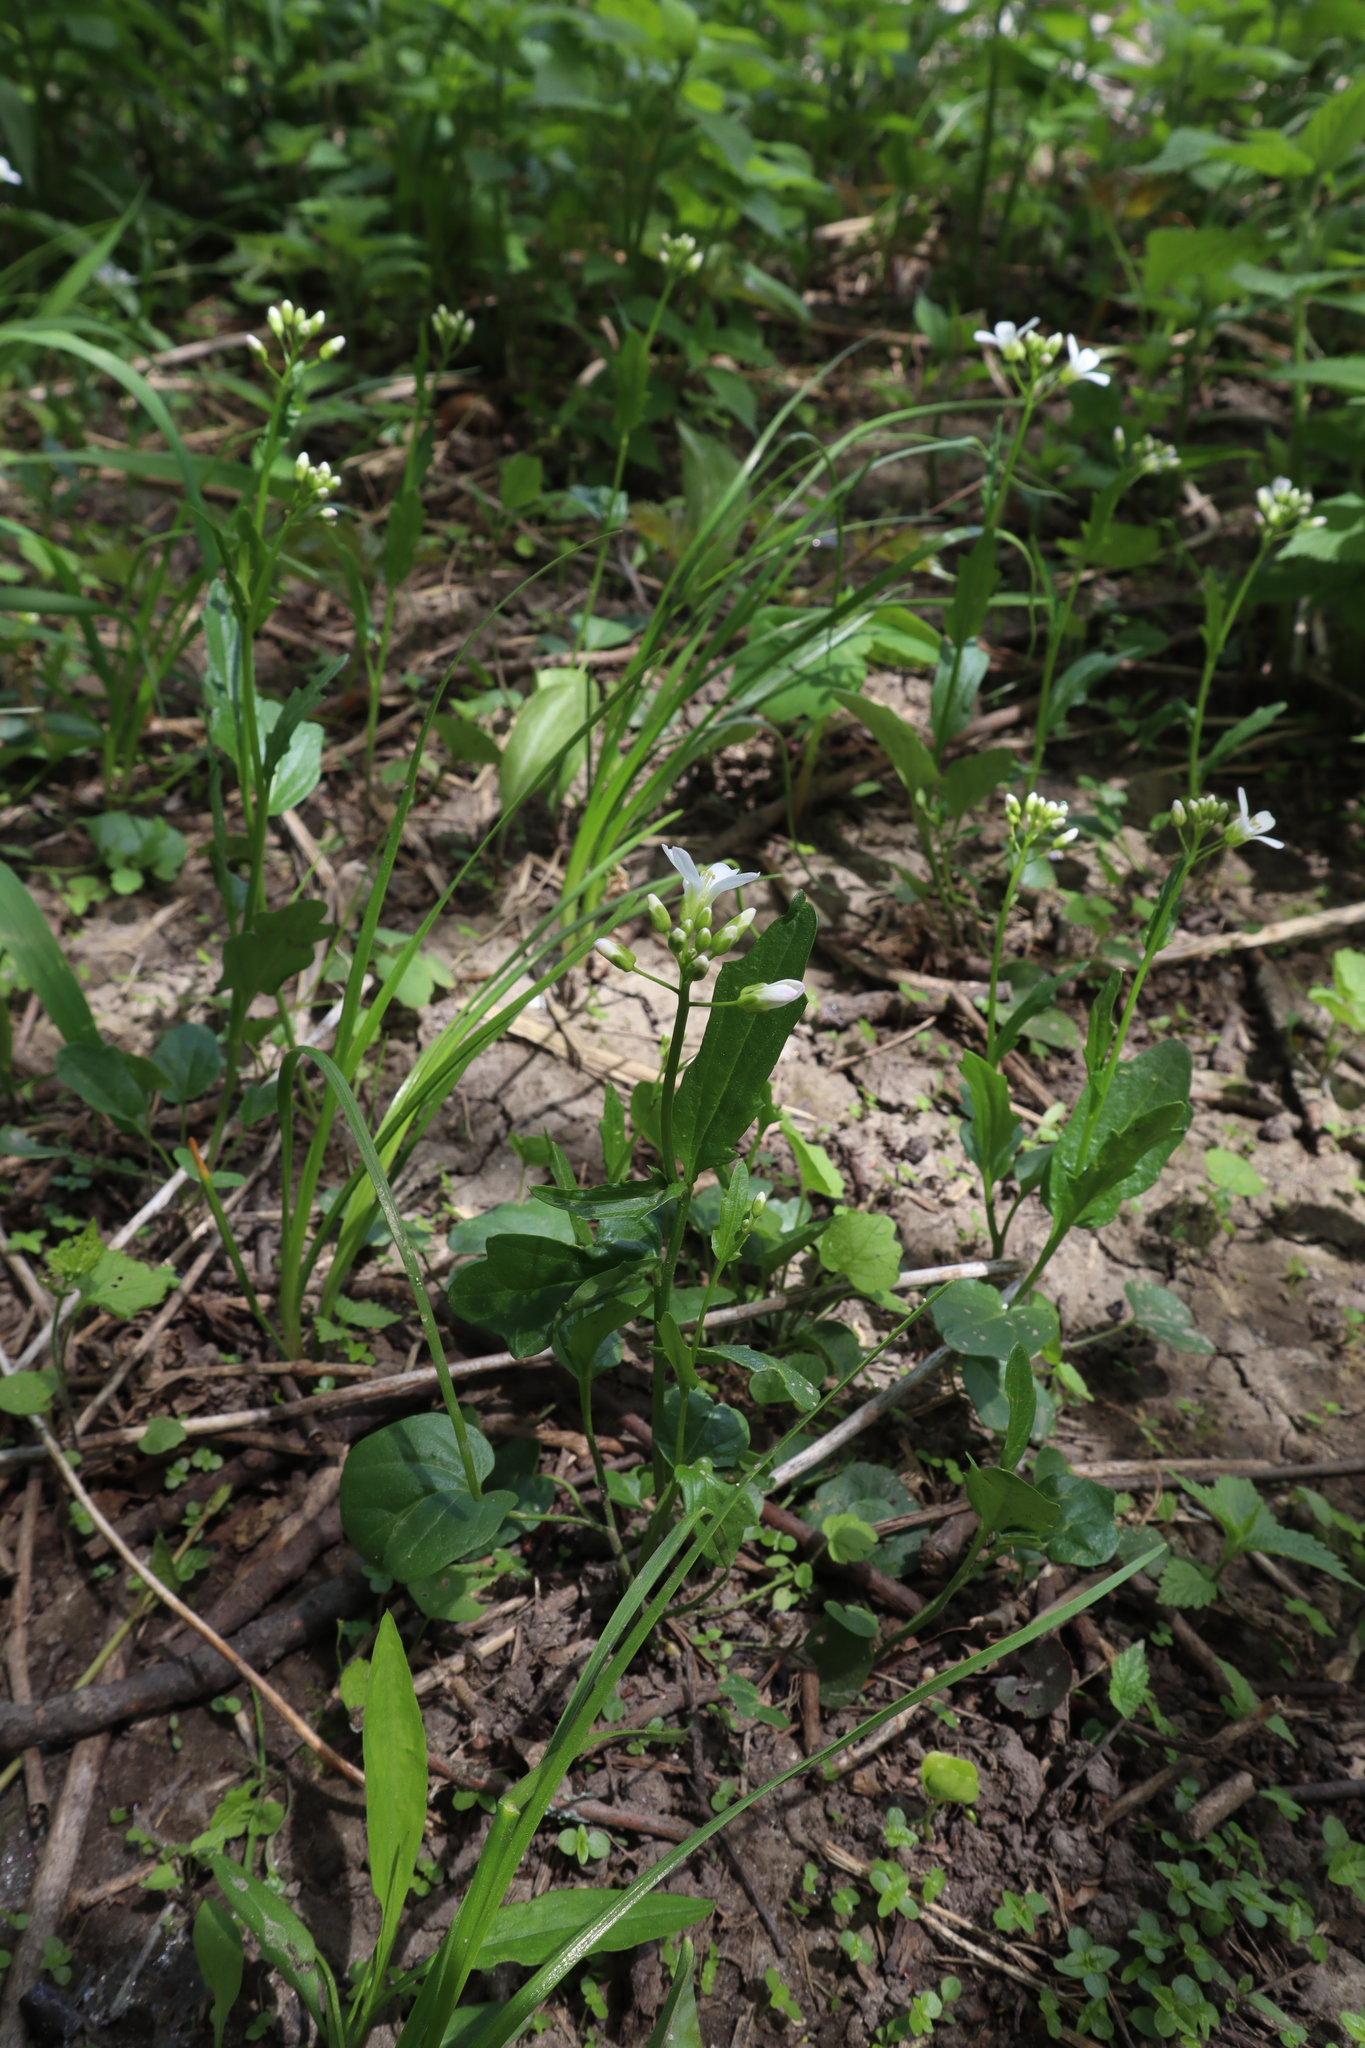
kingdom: Plantae
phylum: Tracheophyta
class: Magnoliopsida
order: Brassicales
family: Brassicaceae
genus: Cardamine
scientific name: Cardamine bulbosa
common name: Spring cress
